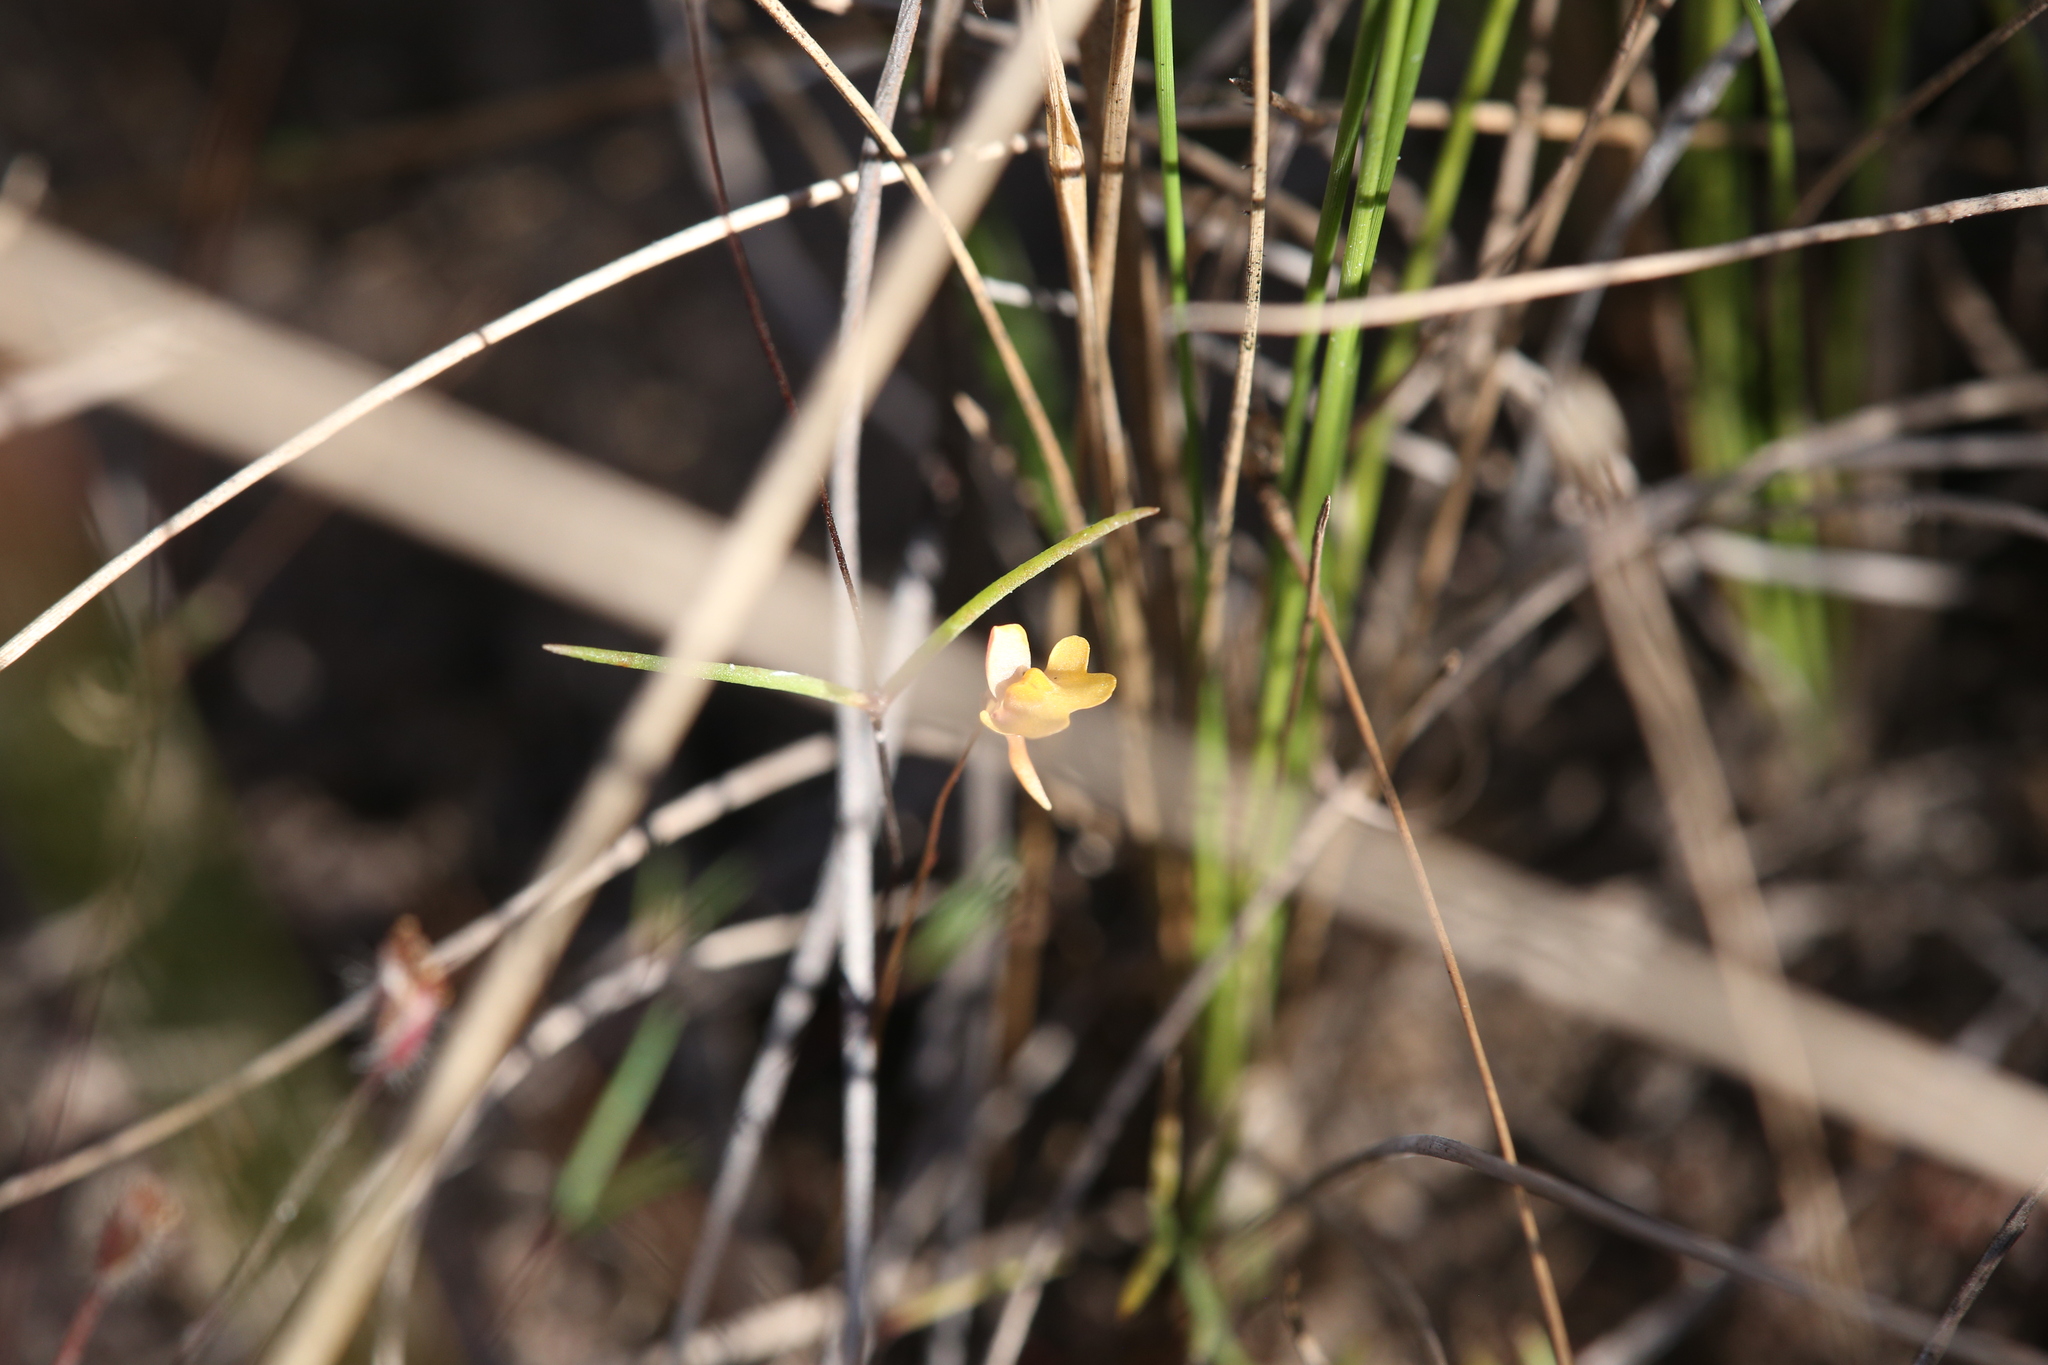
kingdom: Plantae
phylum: Tracheophyta
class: Magnoliopsida
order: Lamiales
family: Lentibulariaceae
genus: Utricularia
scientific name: Utricularia chrysantha
